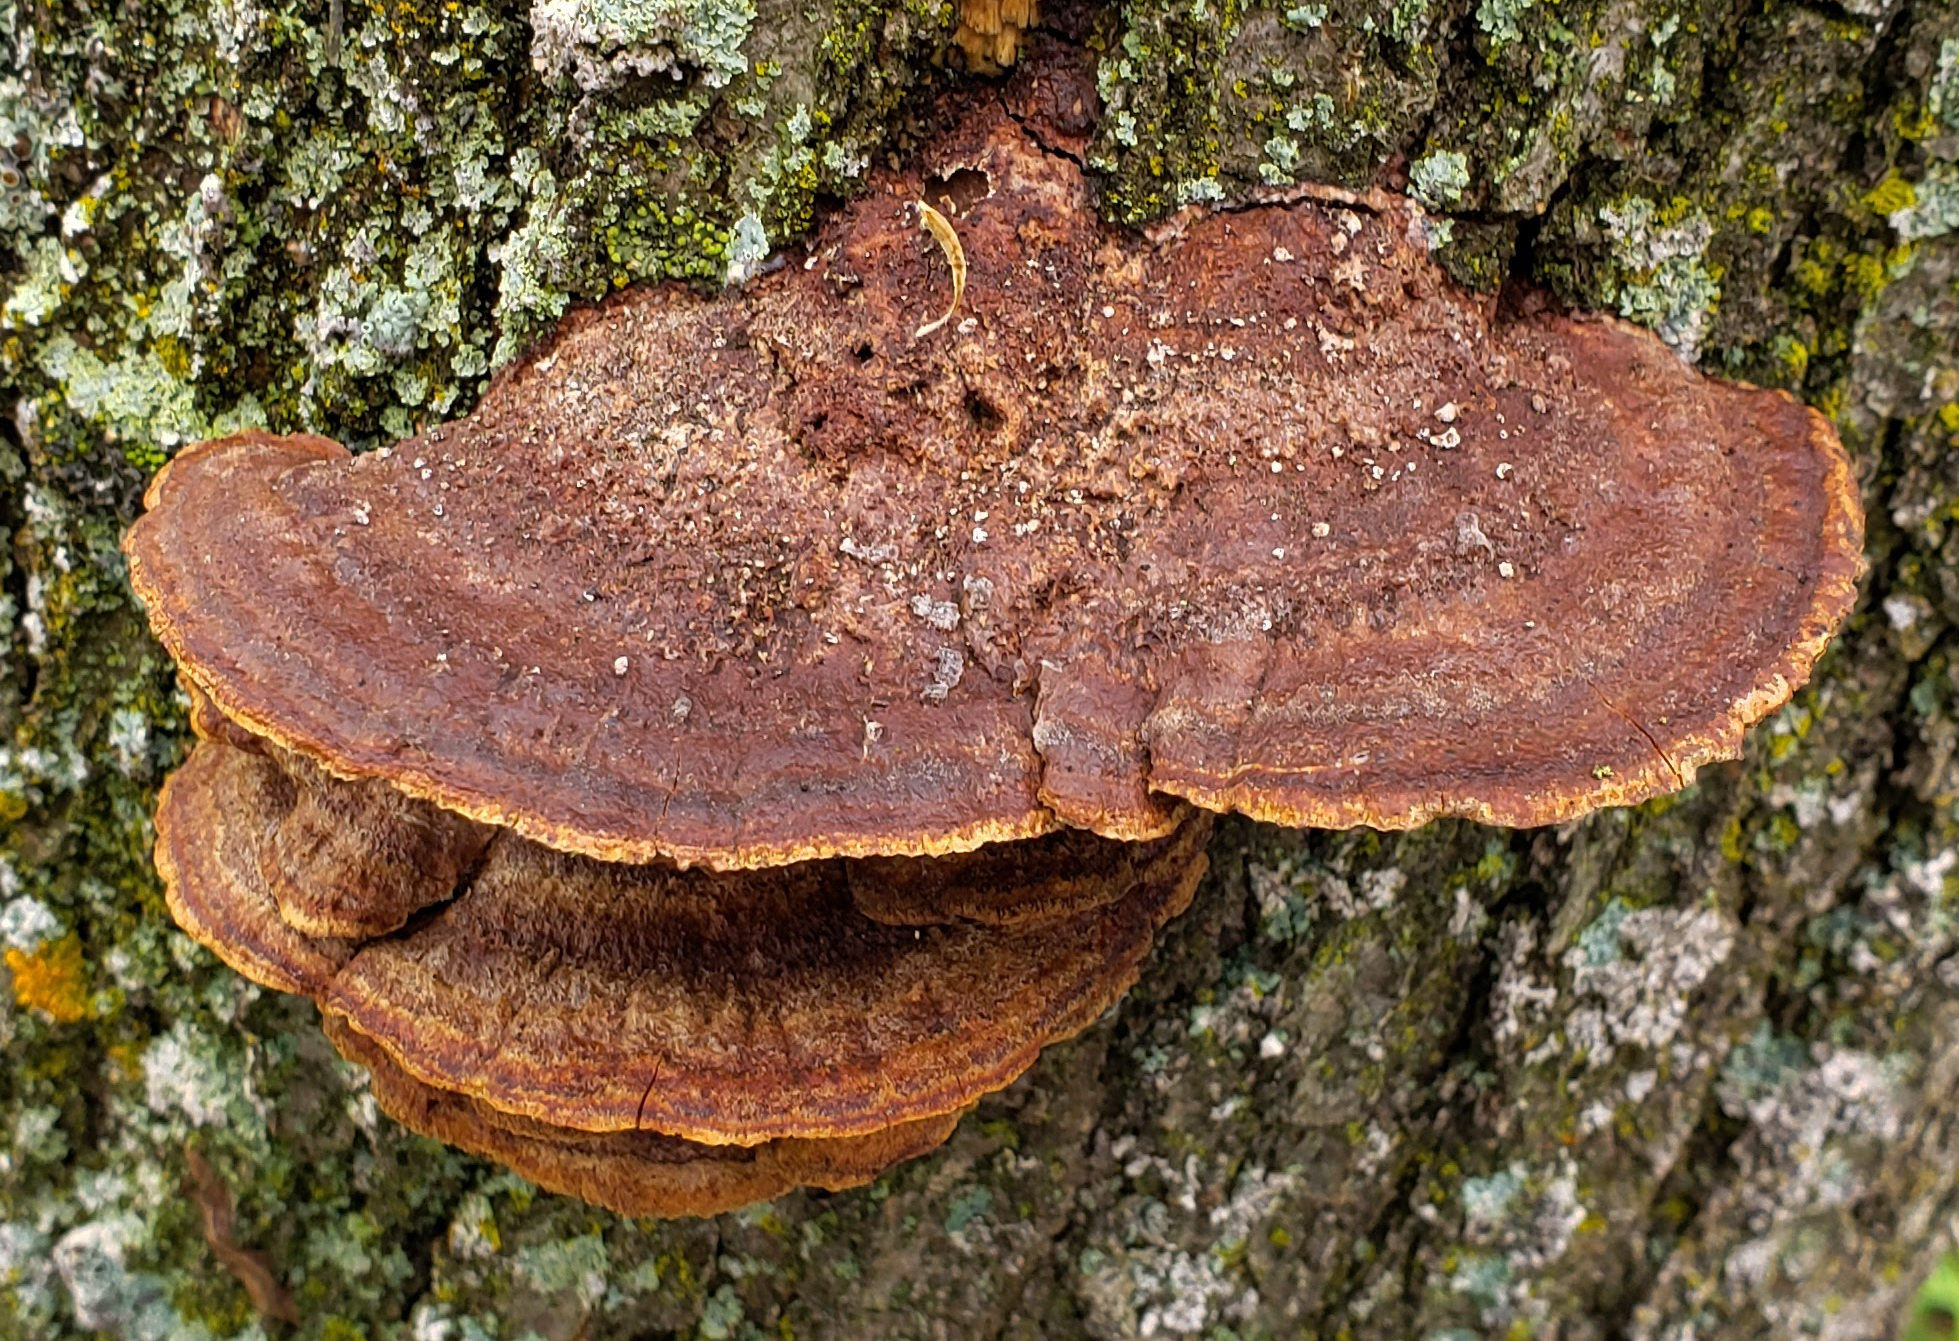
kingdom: Fungi
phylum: Basidiomycota
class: Agaricomycetes
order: Hymenochaetales
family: Hymenochaetaceae
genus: Phellinus
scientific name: Phellinus gilvus
